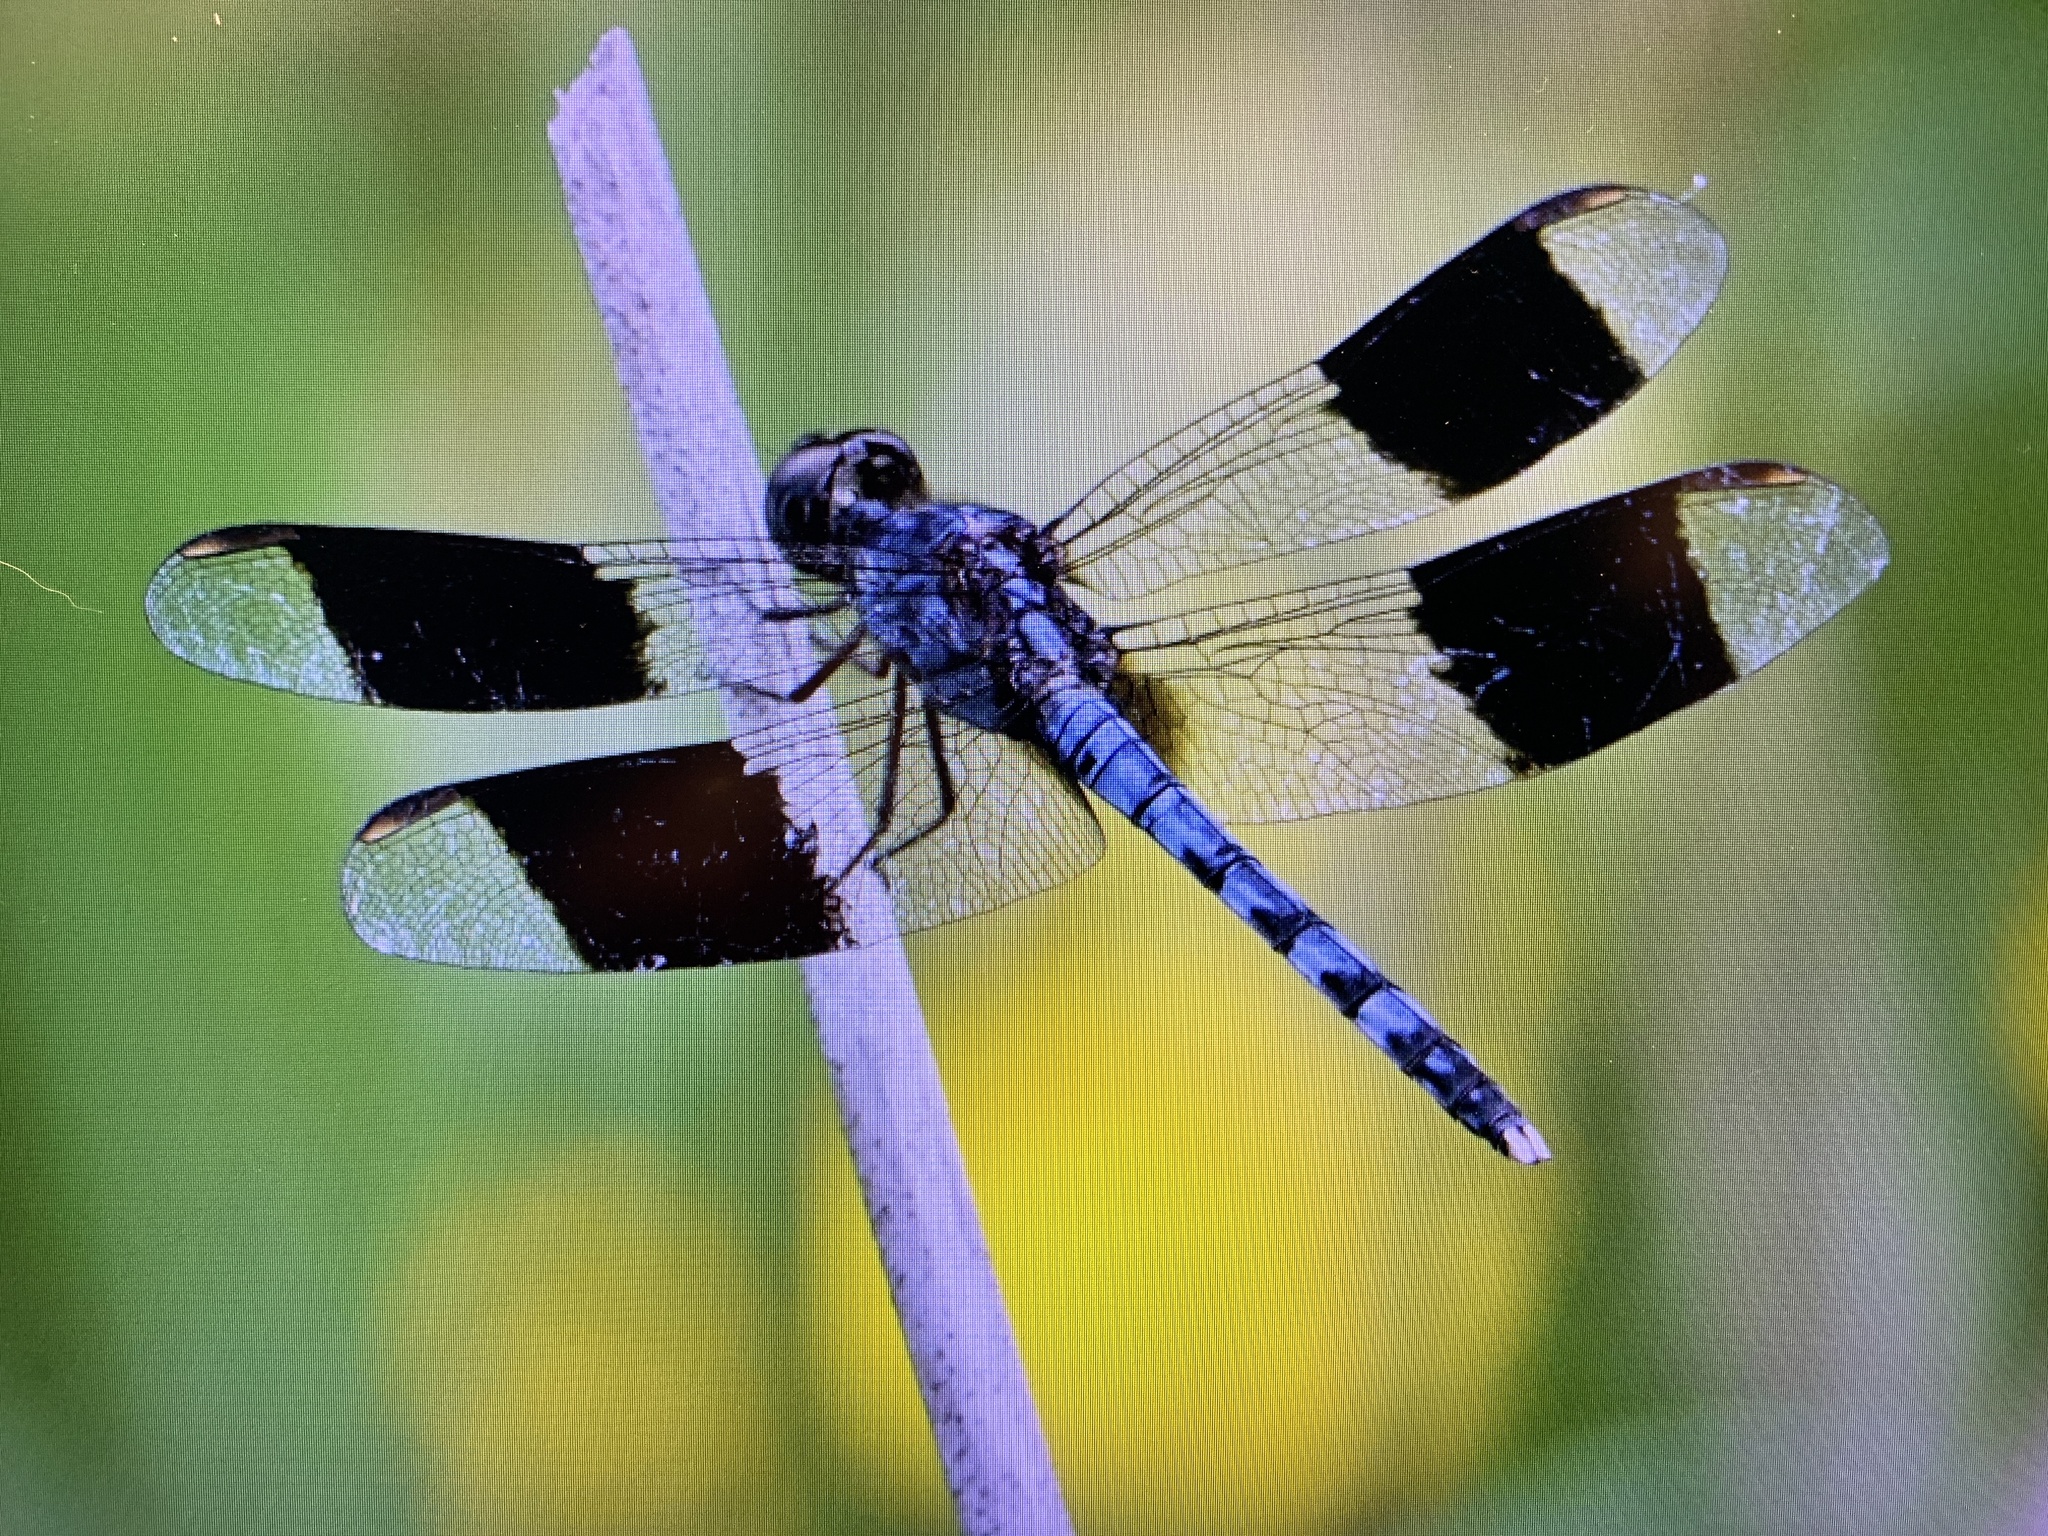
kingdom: Animalia
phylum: Arthropoda
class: Insecta
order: Odonata
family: Libellulidae
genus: Erythrodiplax
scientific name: Erythrodiplax umbrata
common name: Band-winged dragonlet
